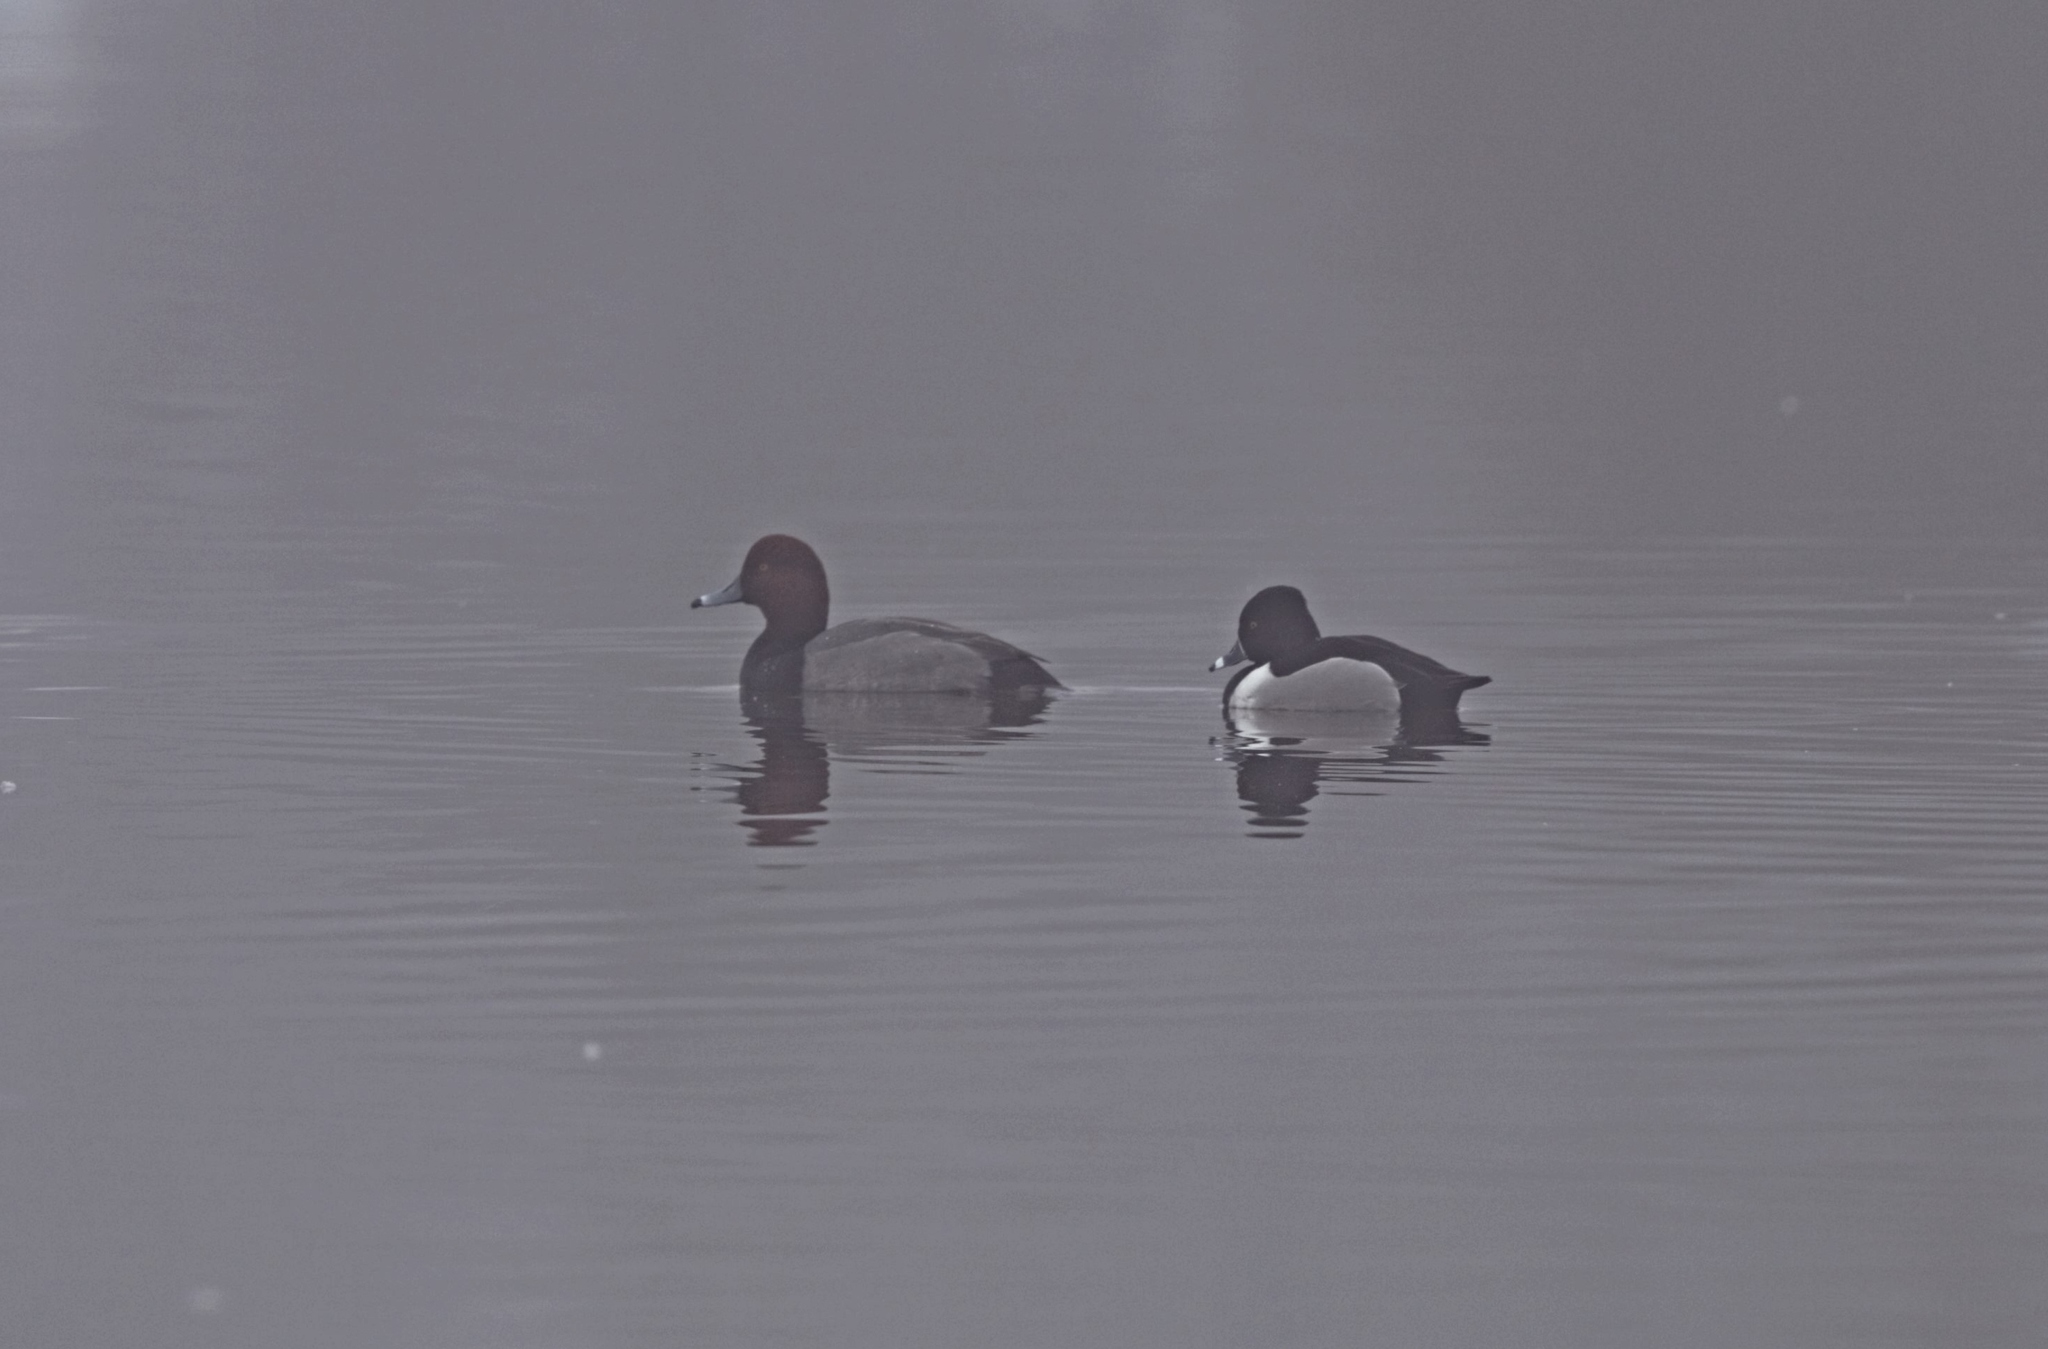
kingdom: Animalia
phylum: Chordata
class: Aves
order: Anseriformes
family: Anatidae
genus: Aythya
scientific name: Aythya collaris
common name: Ring-necked duck
